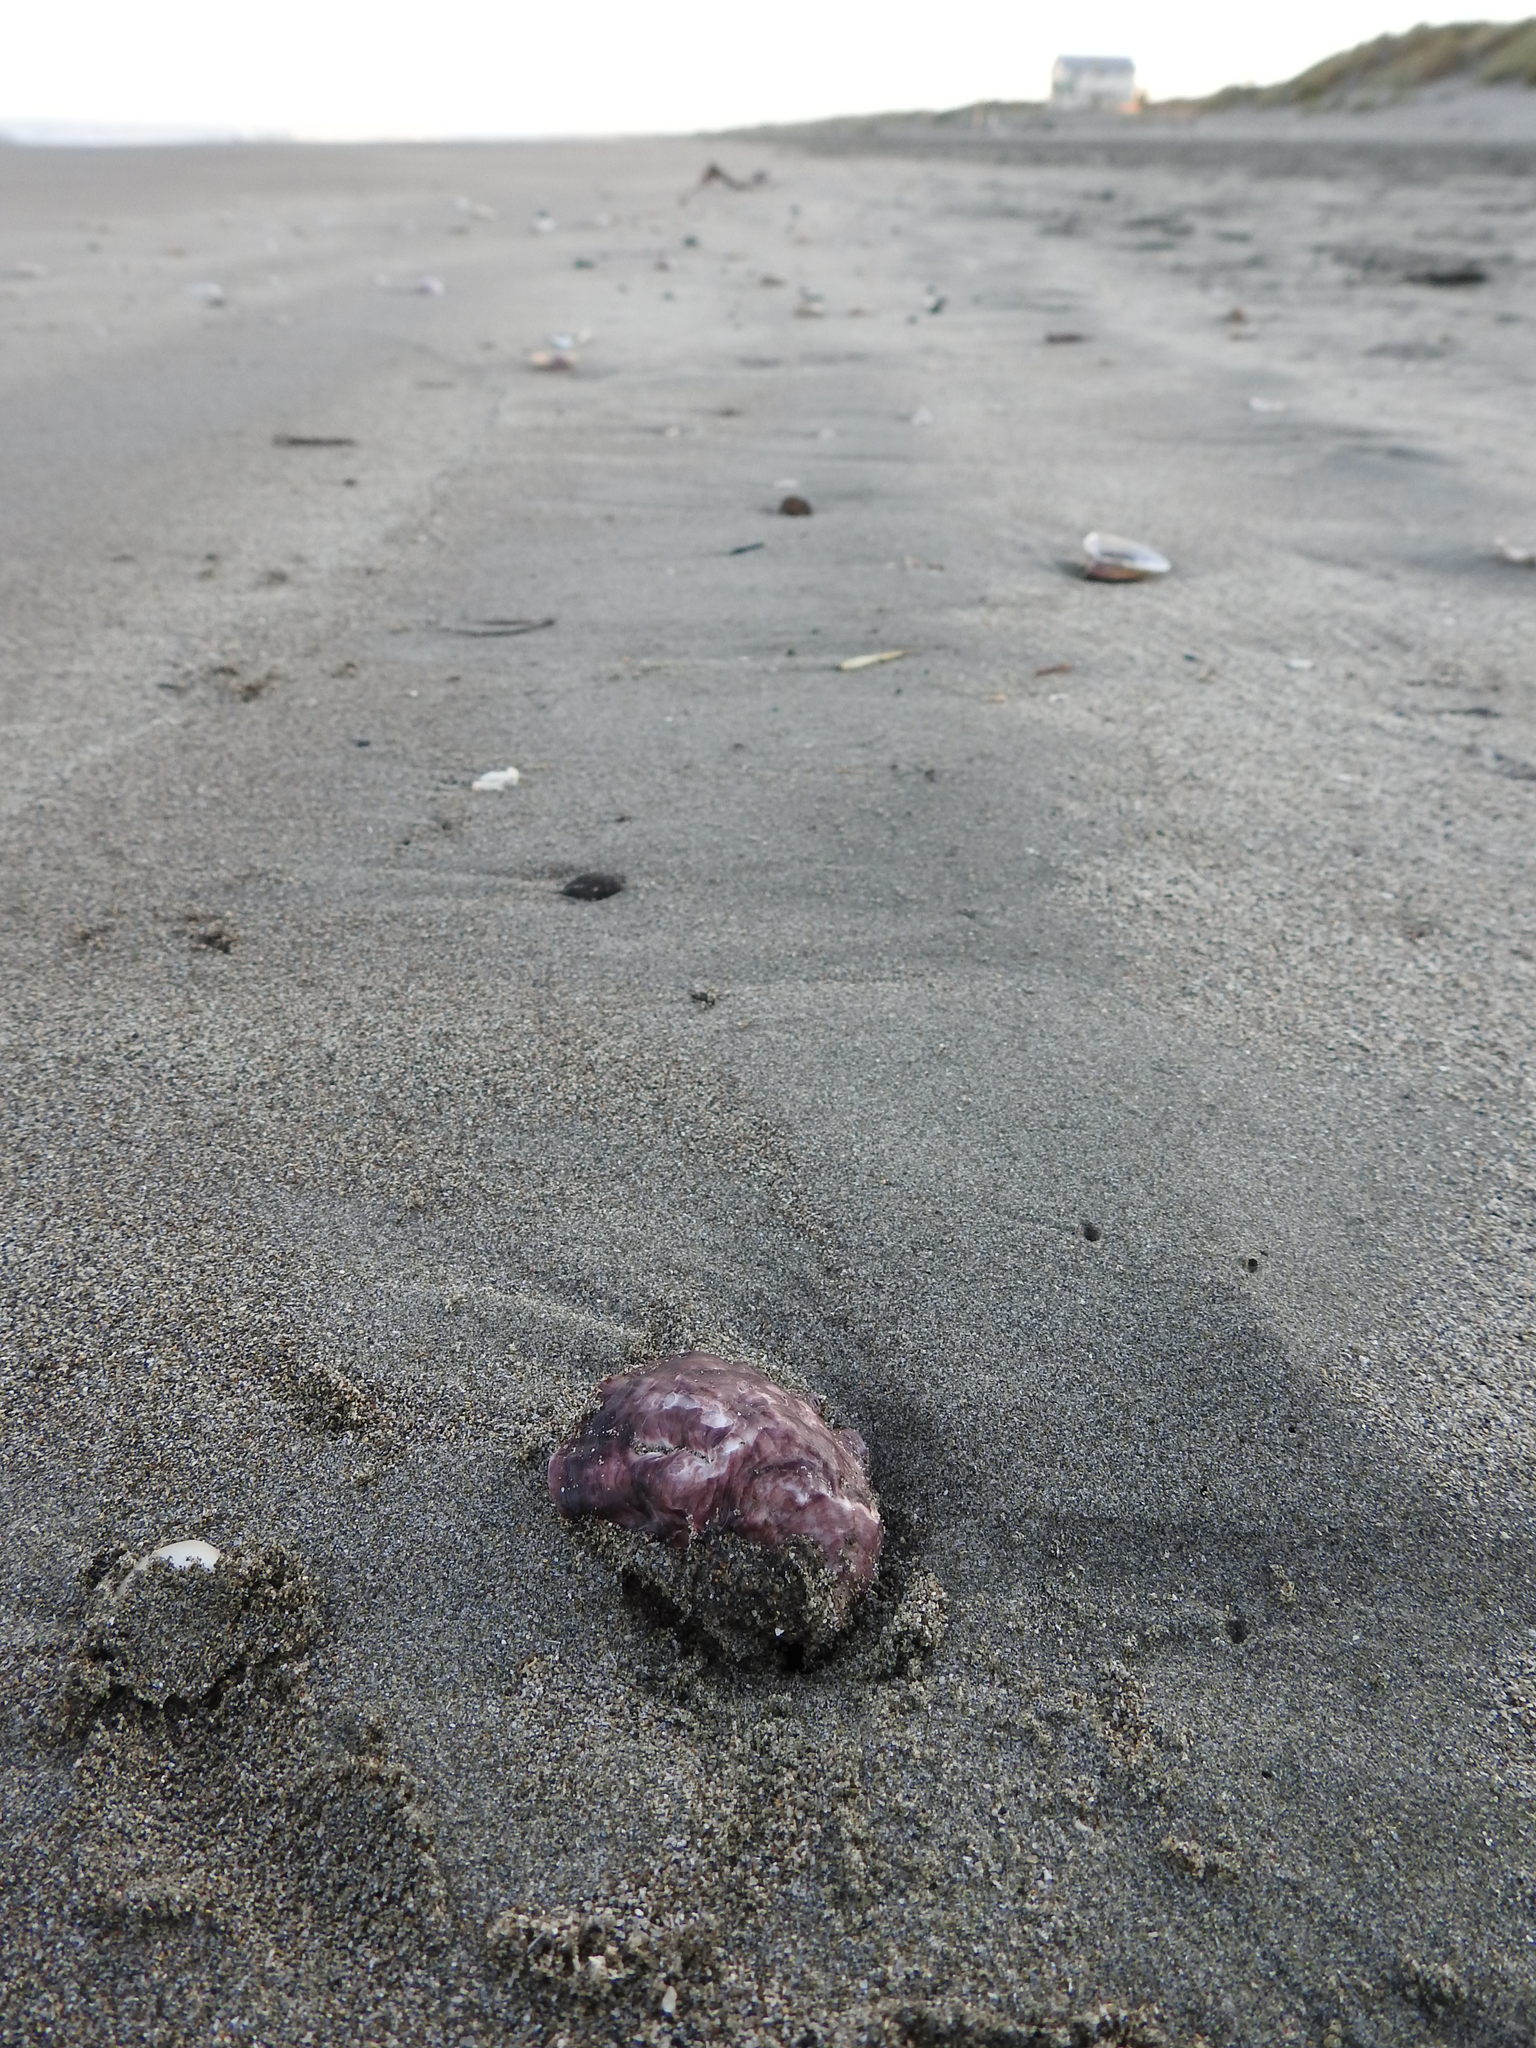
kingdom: Animalia
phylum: Mollusca
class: Bivalvia
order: Ostreida
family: Ostreidae
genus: Magallana
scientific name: Magallana gigas
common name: Pacific oyster
